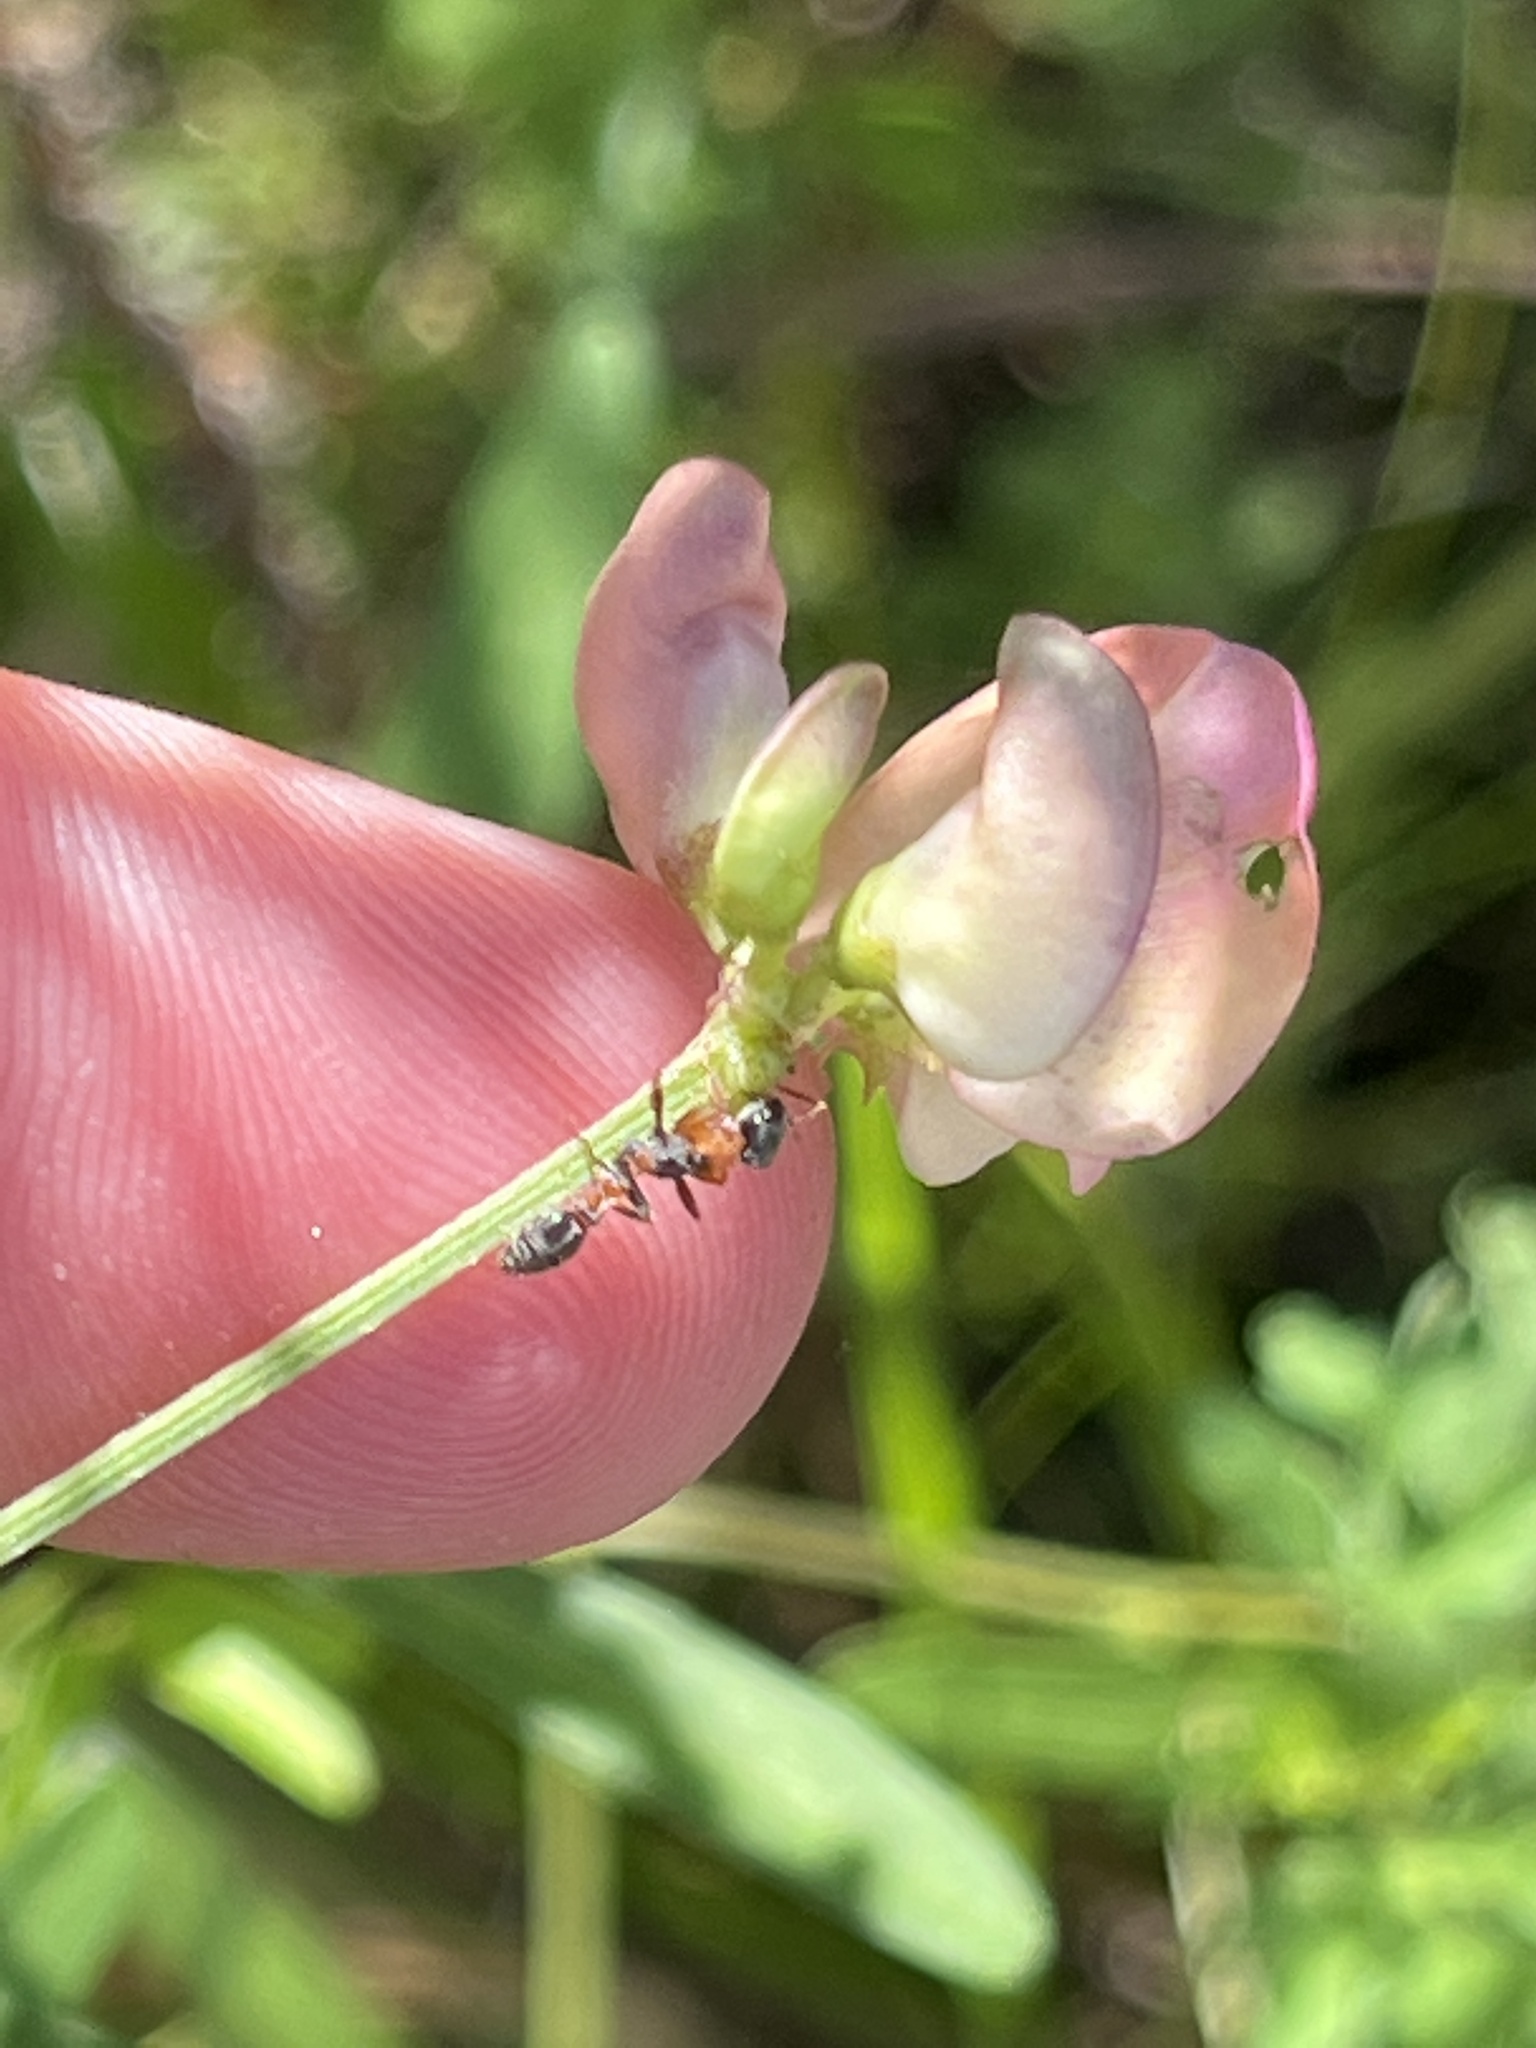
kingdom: Animalia
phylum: Arthropoda
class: Insecta
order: Hymenoptera
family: Formicidae
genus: Pseudomyrmex
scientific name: Pseudomyrmex gracilis
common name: Graceful twig ant
